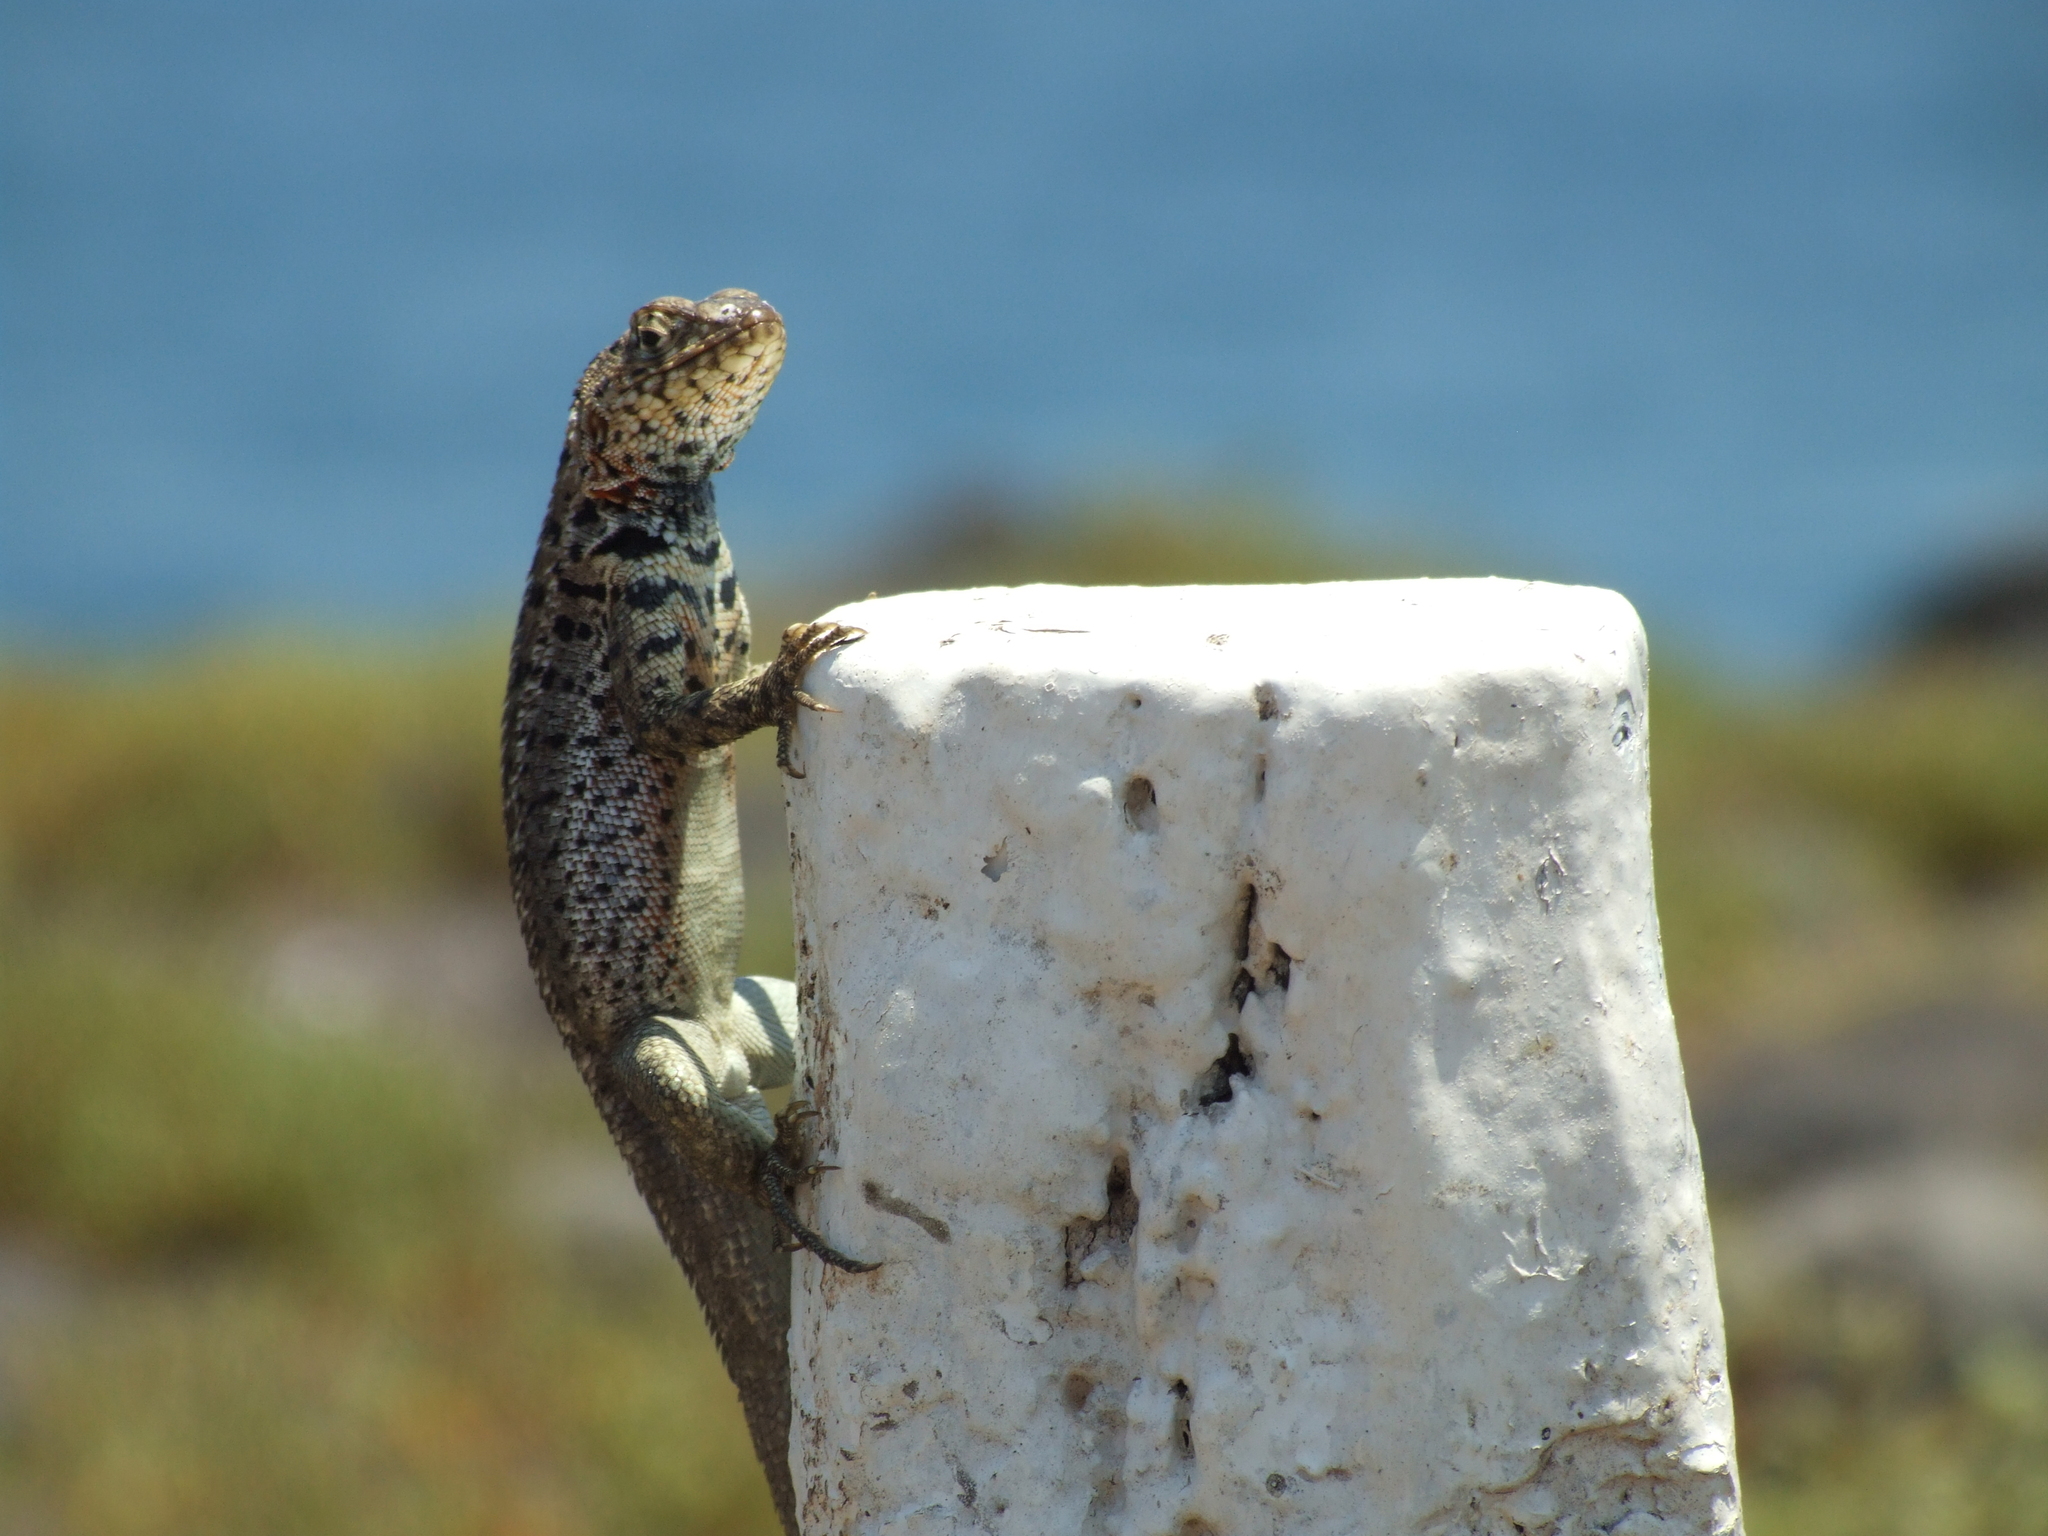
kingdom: Animalia
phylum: Chordata
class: Squamata
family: Tropiduridae
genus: Microlophus
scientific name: Microlophus indefatigabilis
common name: Galapagos lava lizard
